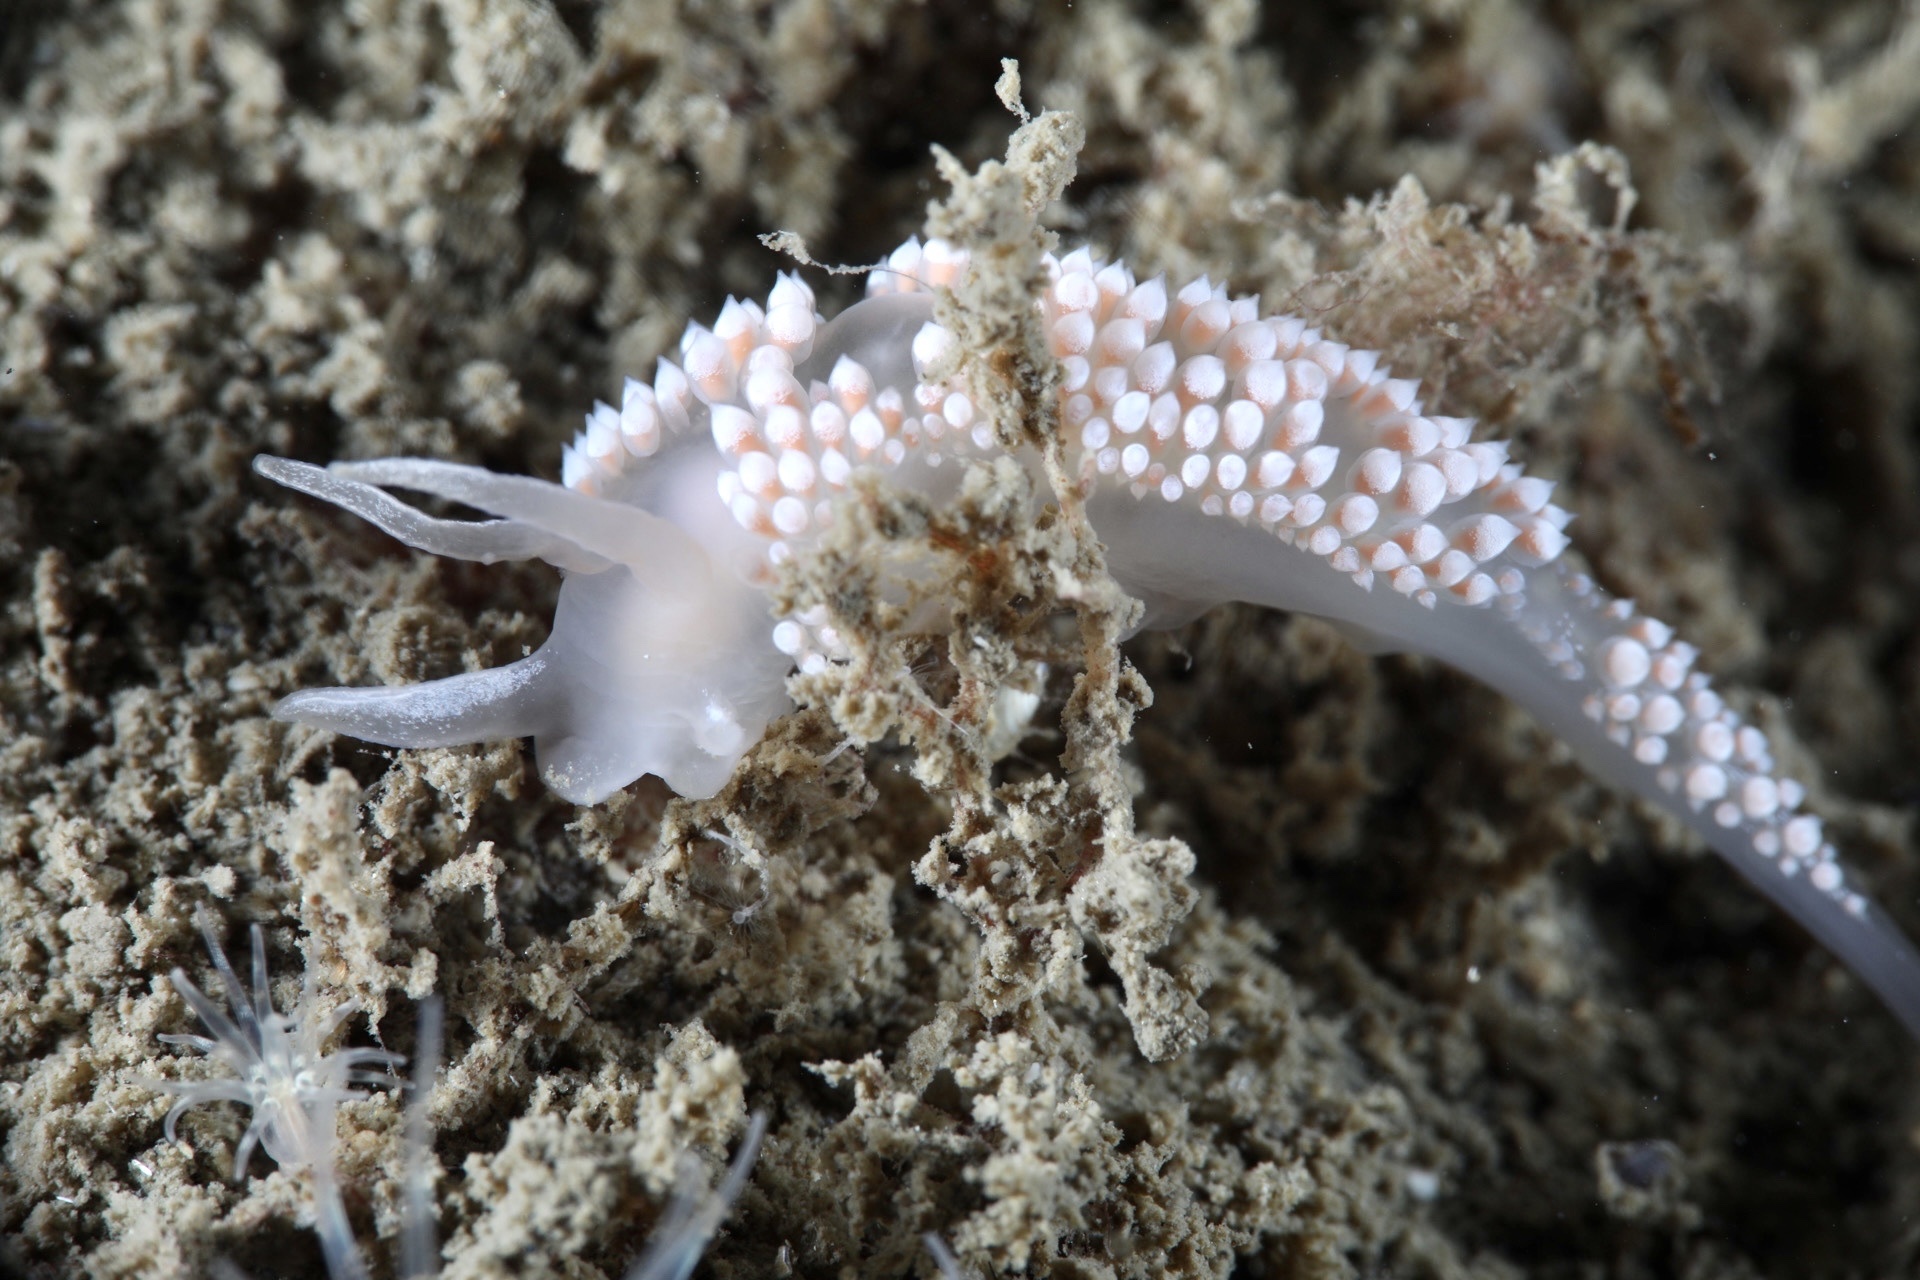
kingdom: Animalia
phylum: Mollusca
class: Gastropoda
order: Nudibranchia
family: Coryphellidae
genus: Coryphella
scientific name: Coryphella verrucosa
